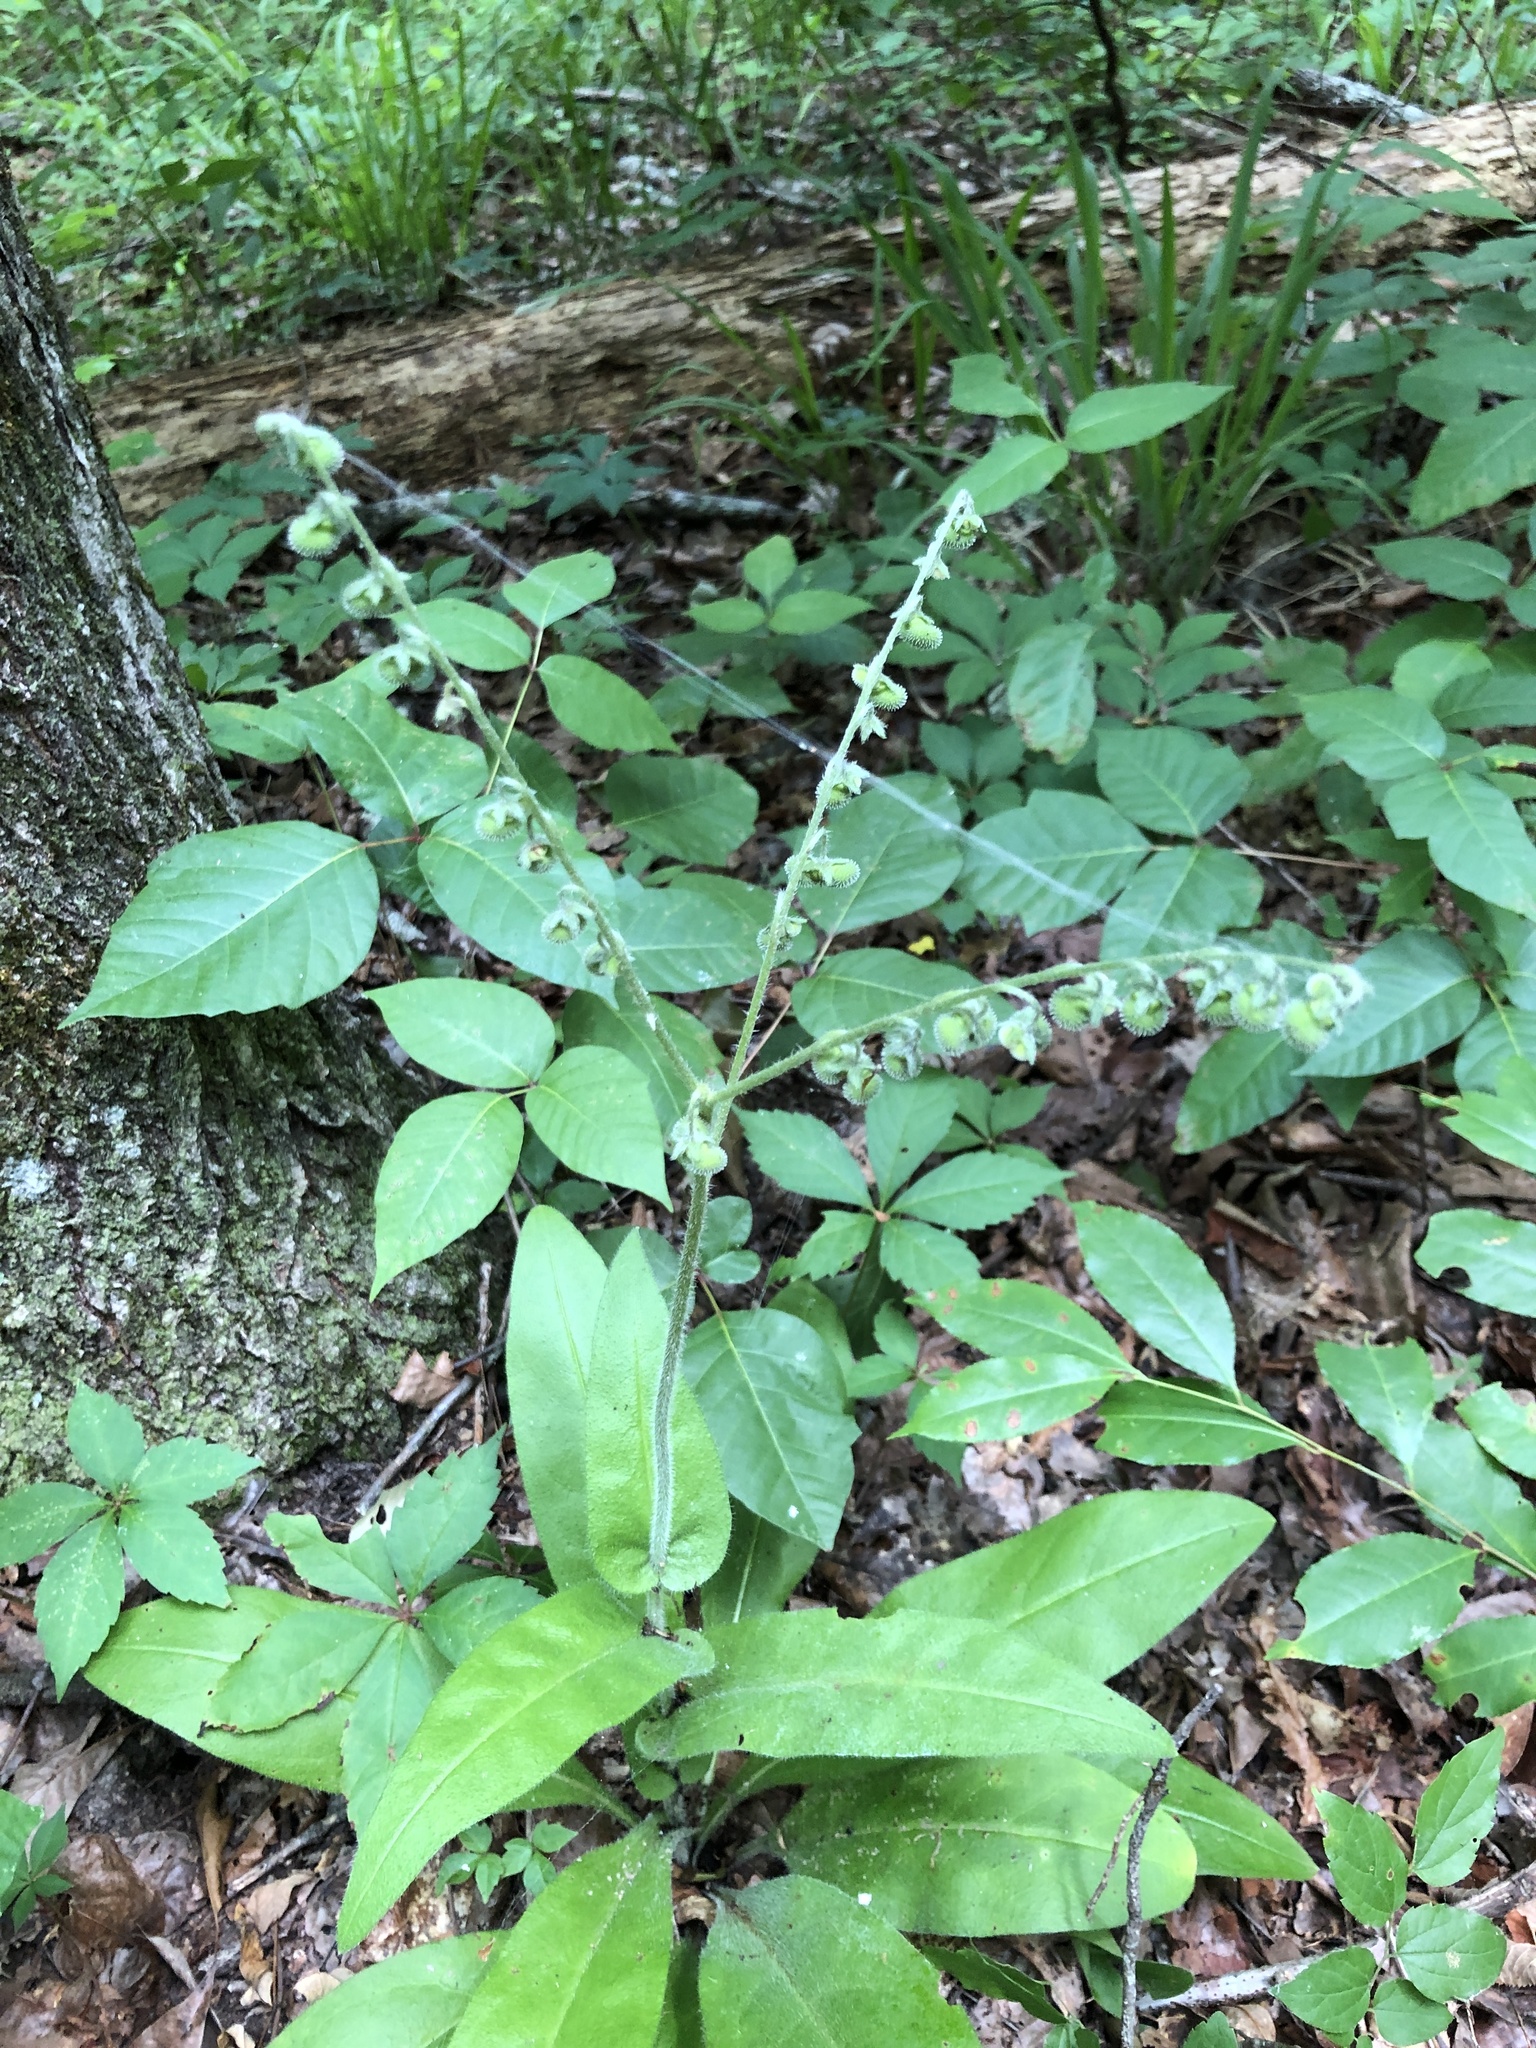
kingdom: Plantae
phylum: Tracheophyta
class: Magnoliopsida
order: Boraginales
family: Boraginaceae
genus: Andersonglossum
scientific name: Andersonglossum virginianum
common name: Wild comfrey
